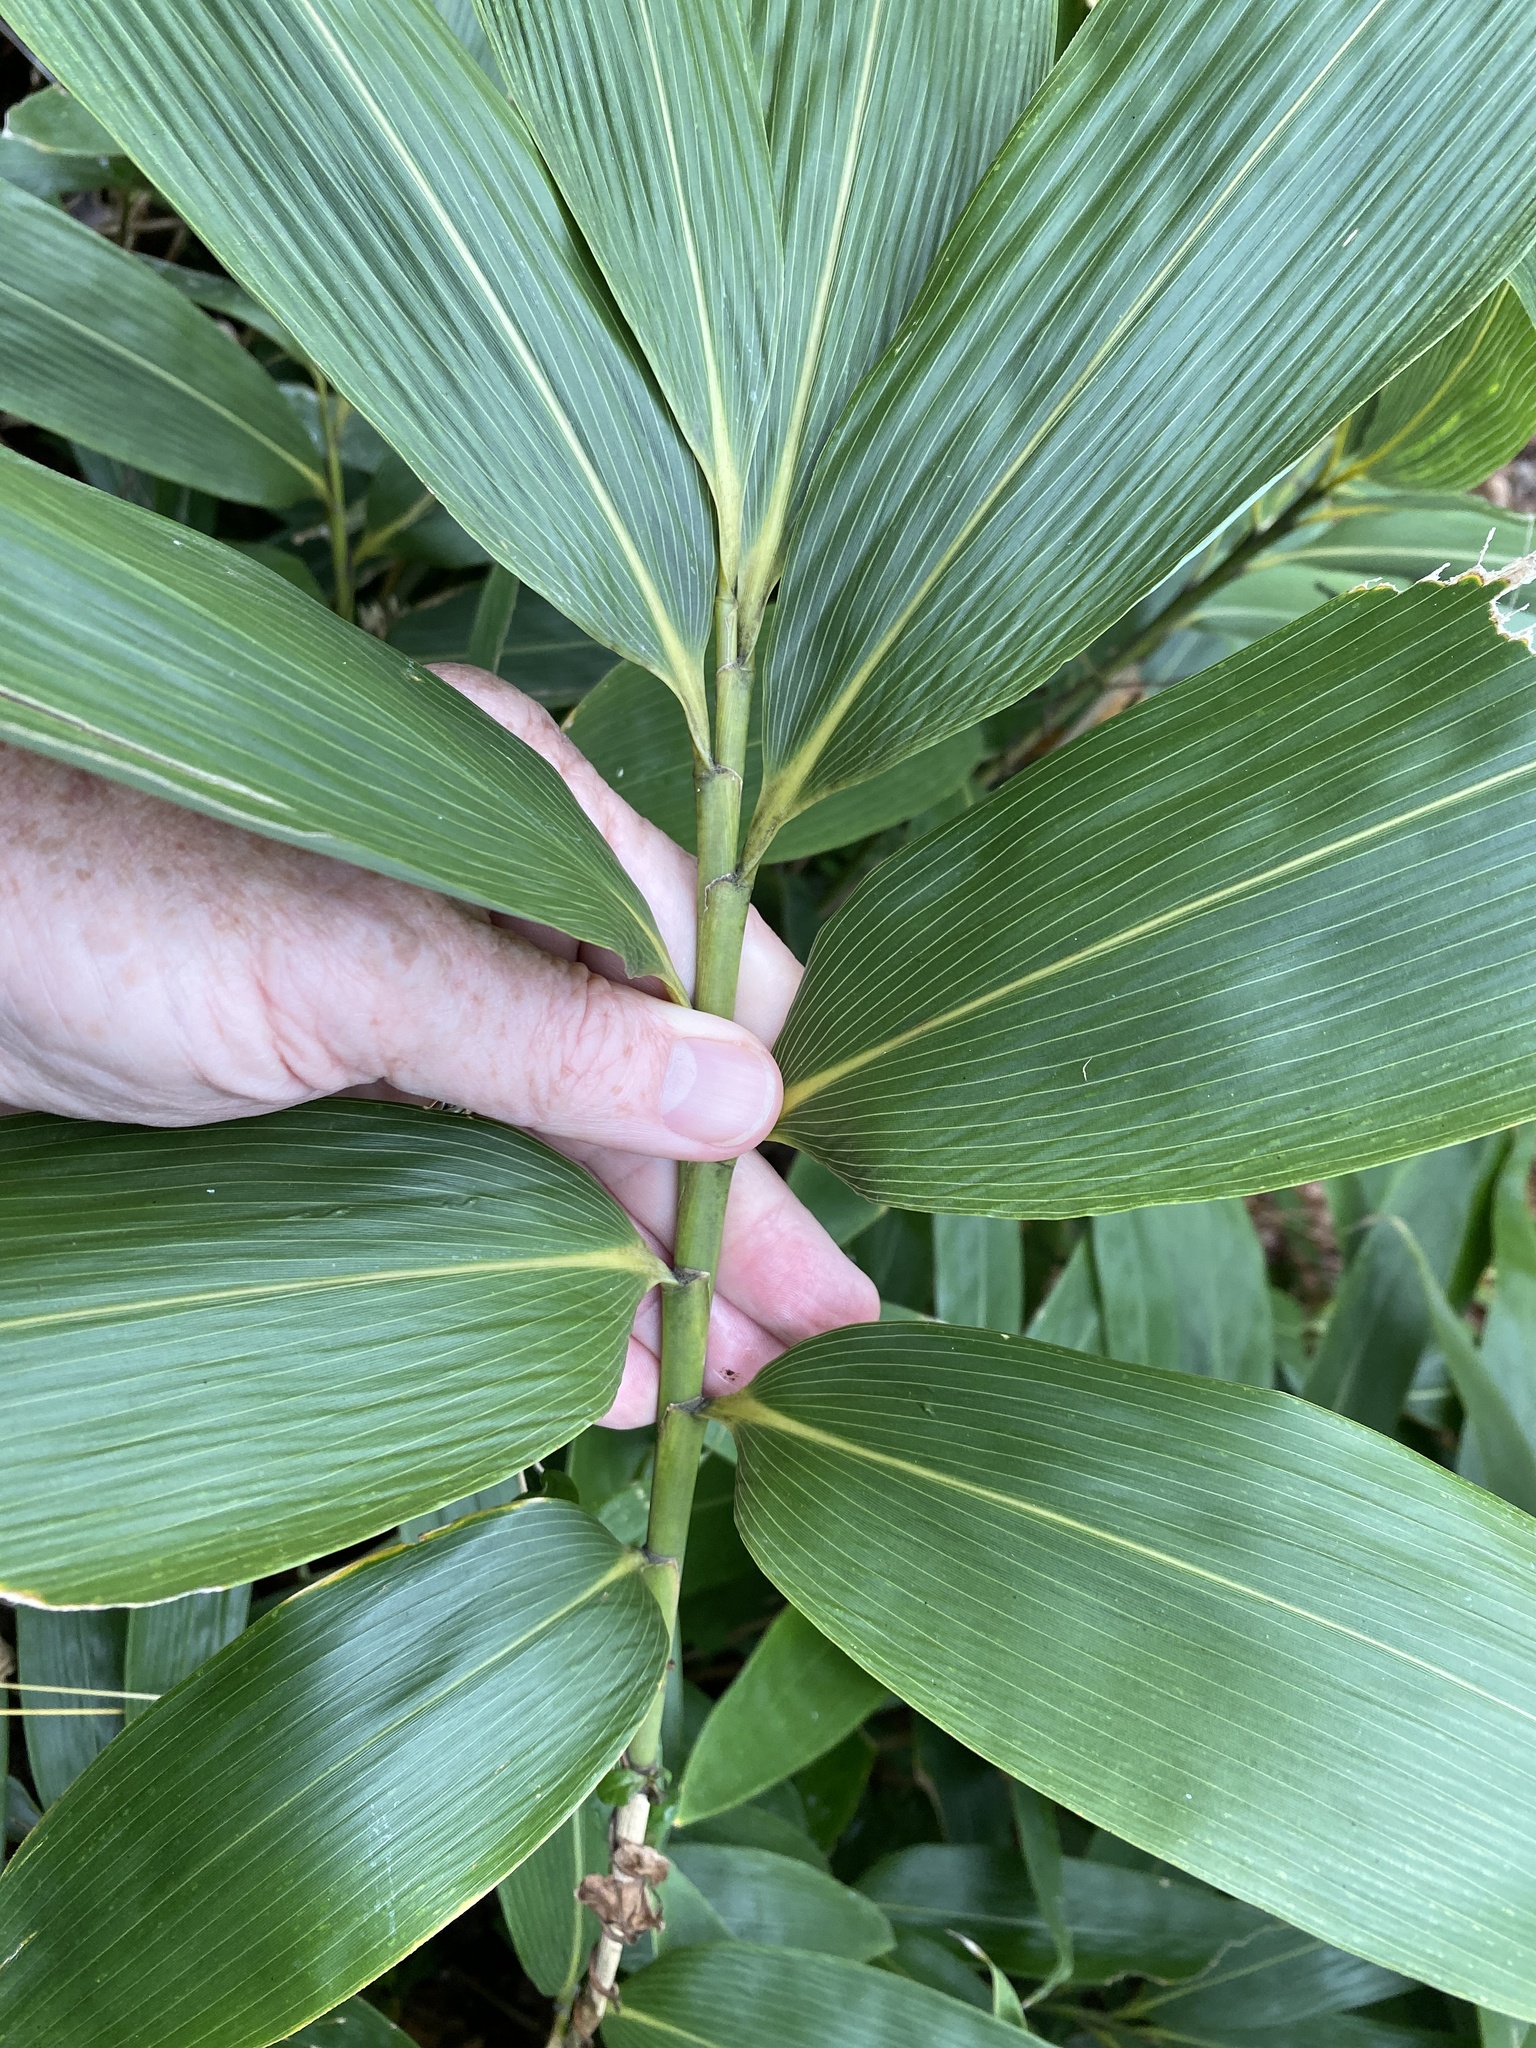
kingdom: Plantae
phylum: Tracheophyta
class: Liliopsida
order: Poales
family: Poaceae
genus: Sasa
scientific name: Sasa palmata
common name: Broad-leaved bamboo
